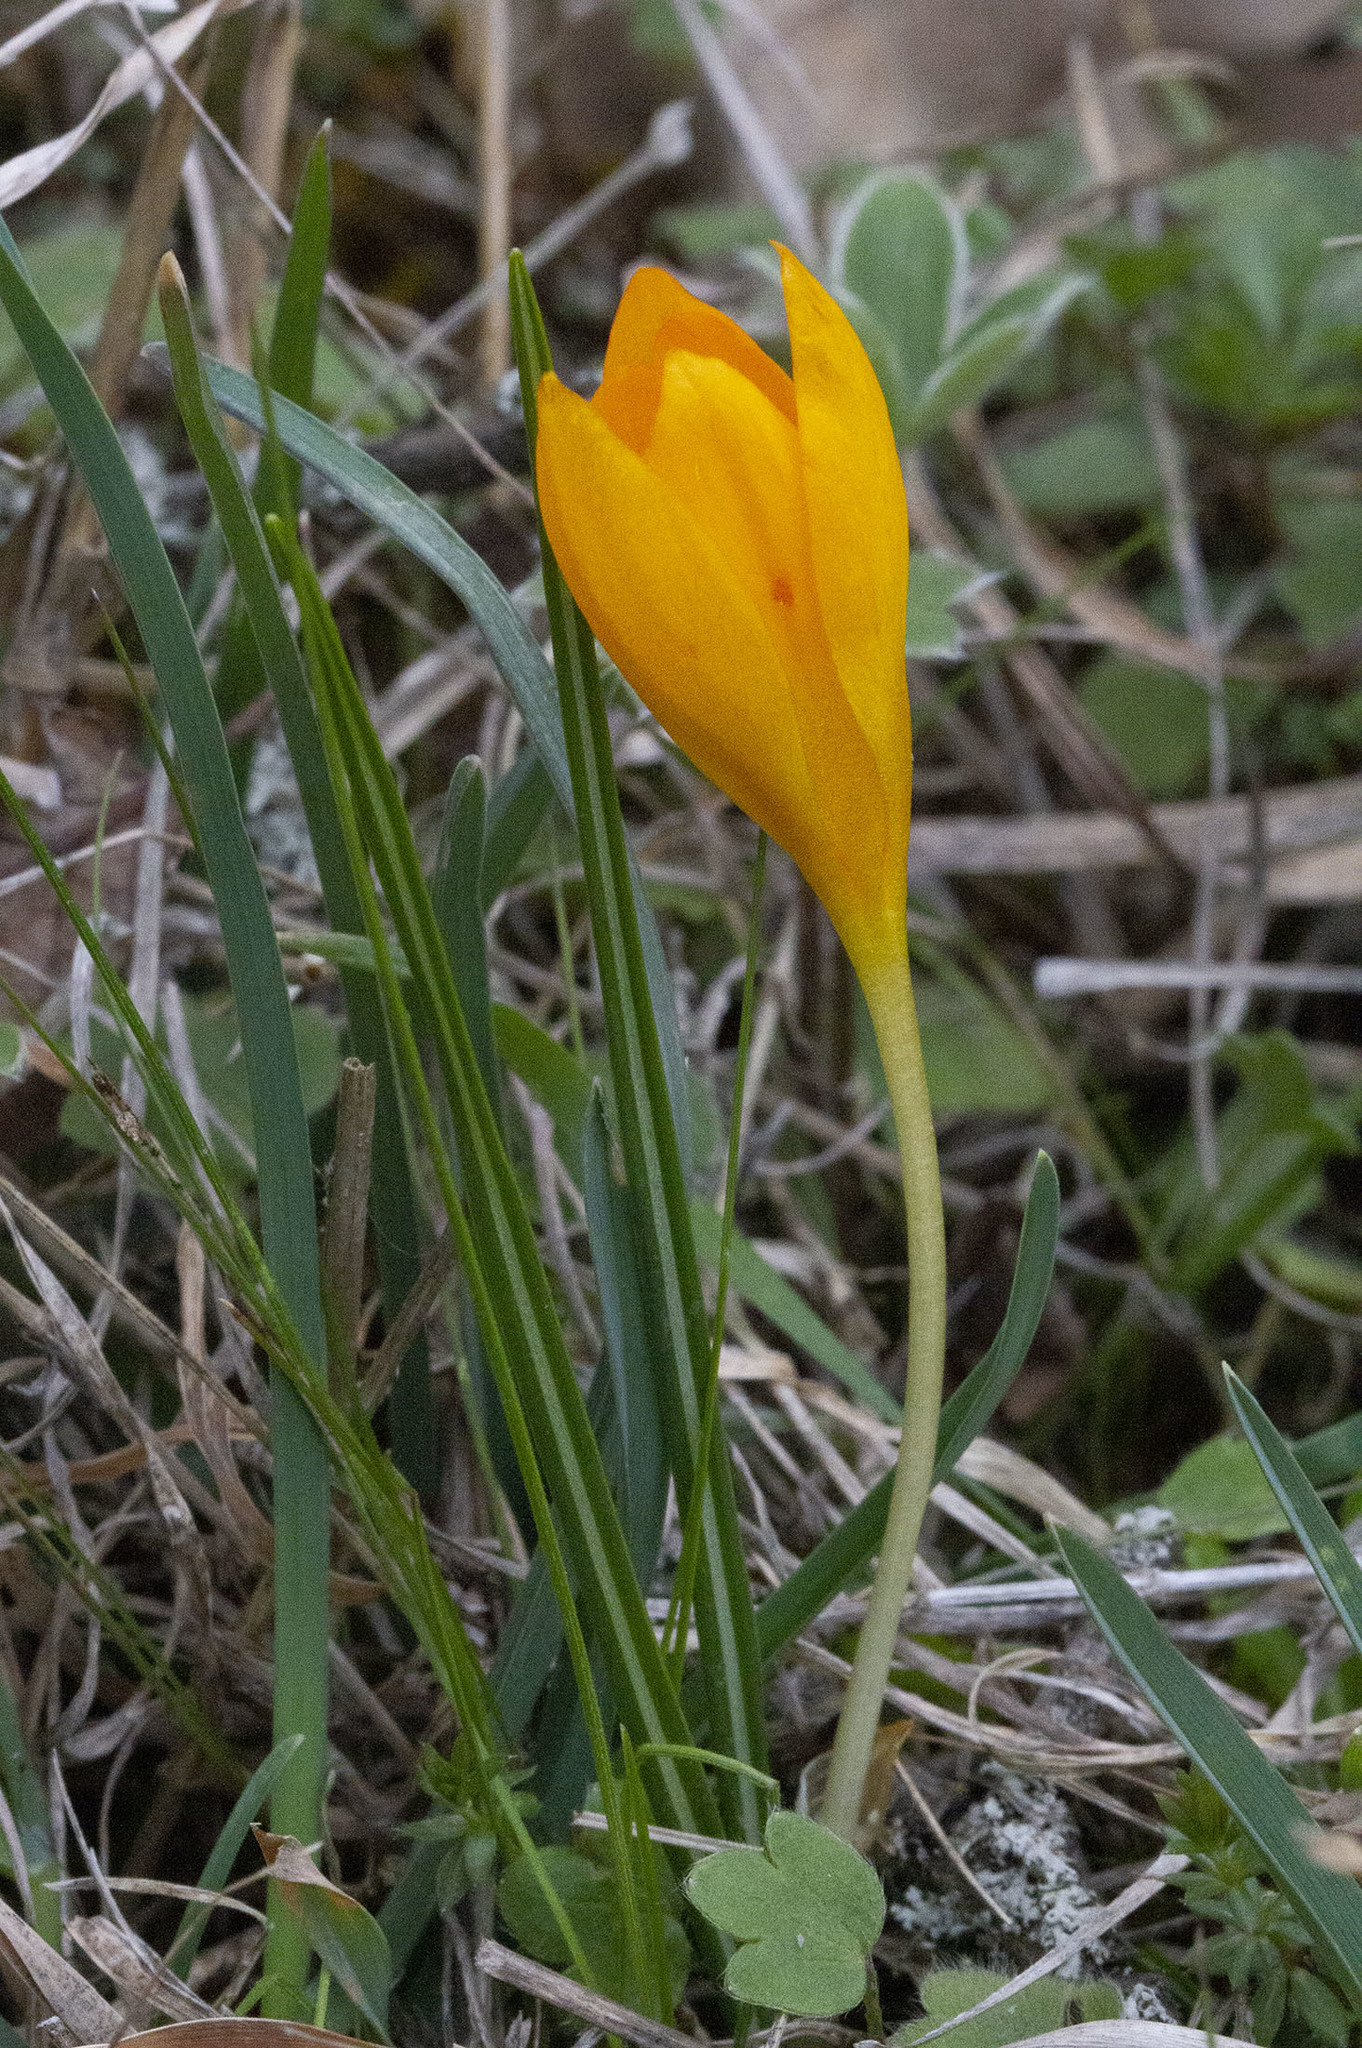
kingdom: Plantae
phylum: Tracheophyta
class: Liliopsida
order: Asparagales
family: Iridaceae
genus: Crocus
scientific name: Crocus flavus
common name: Yellow crocus
